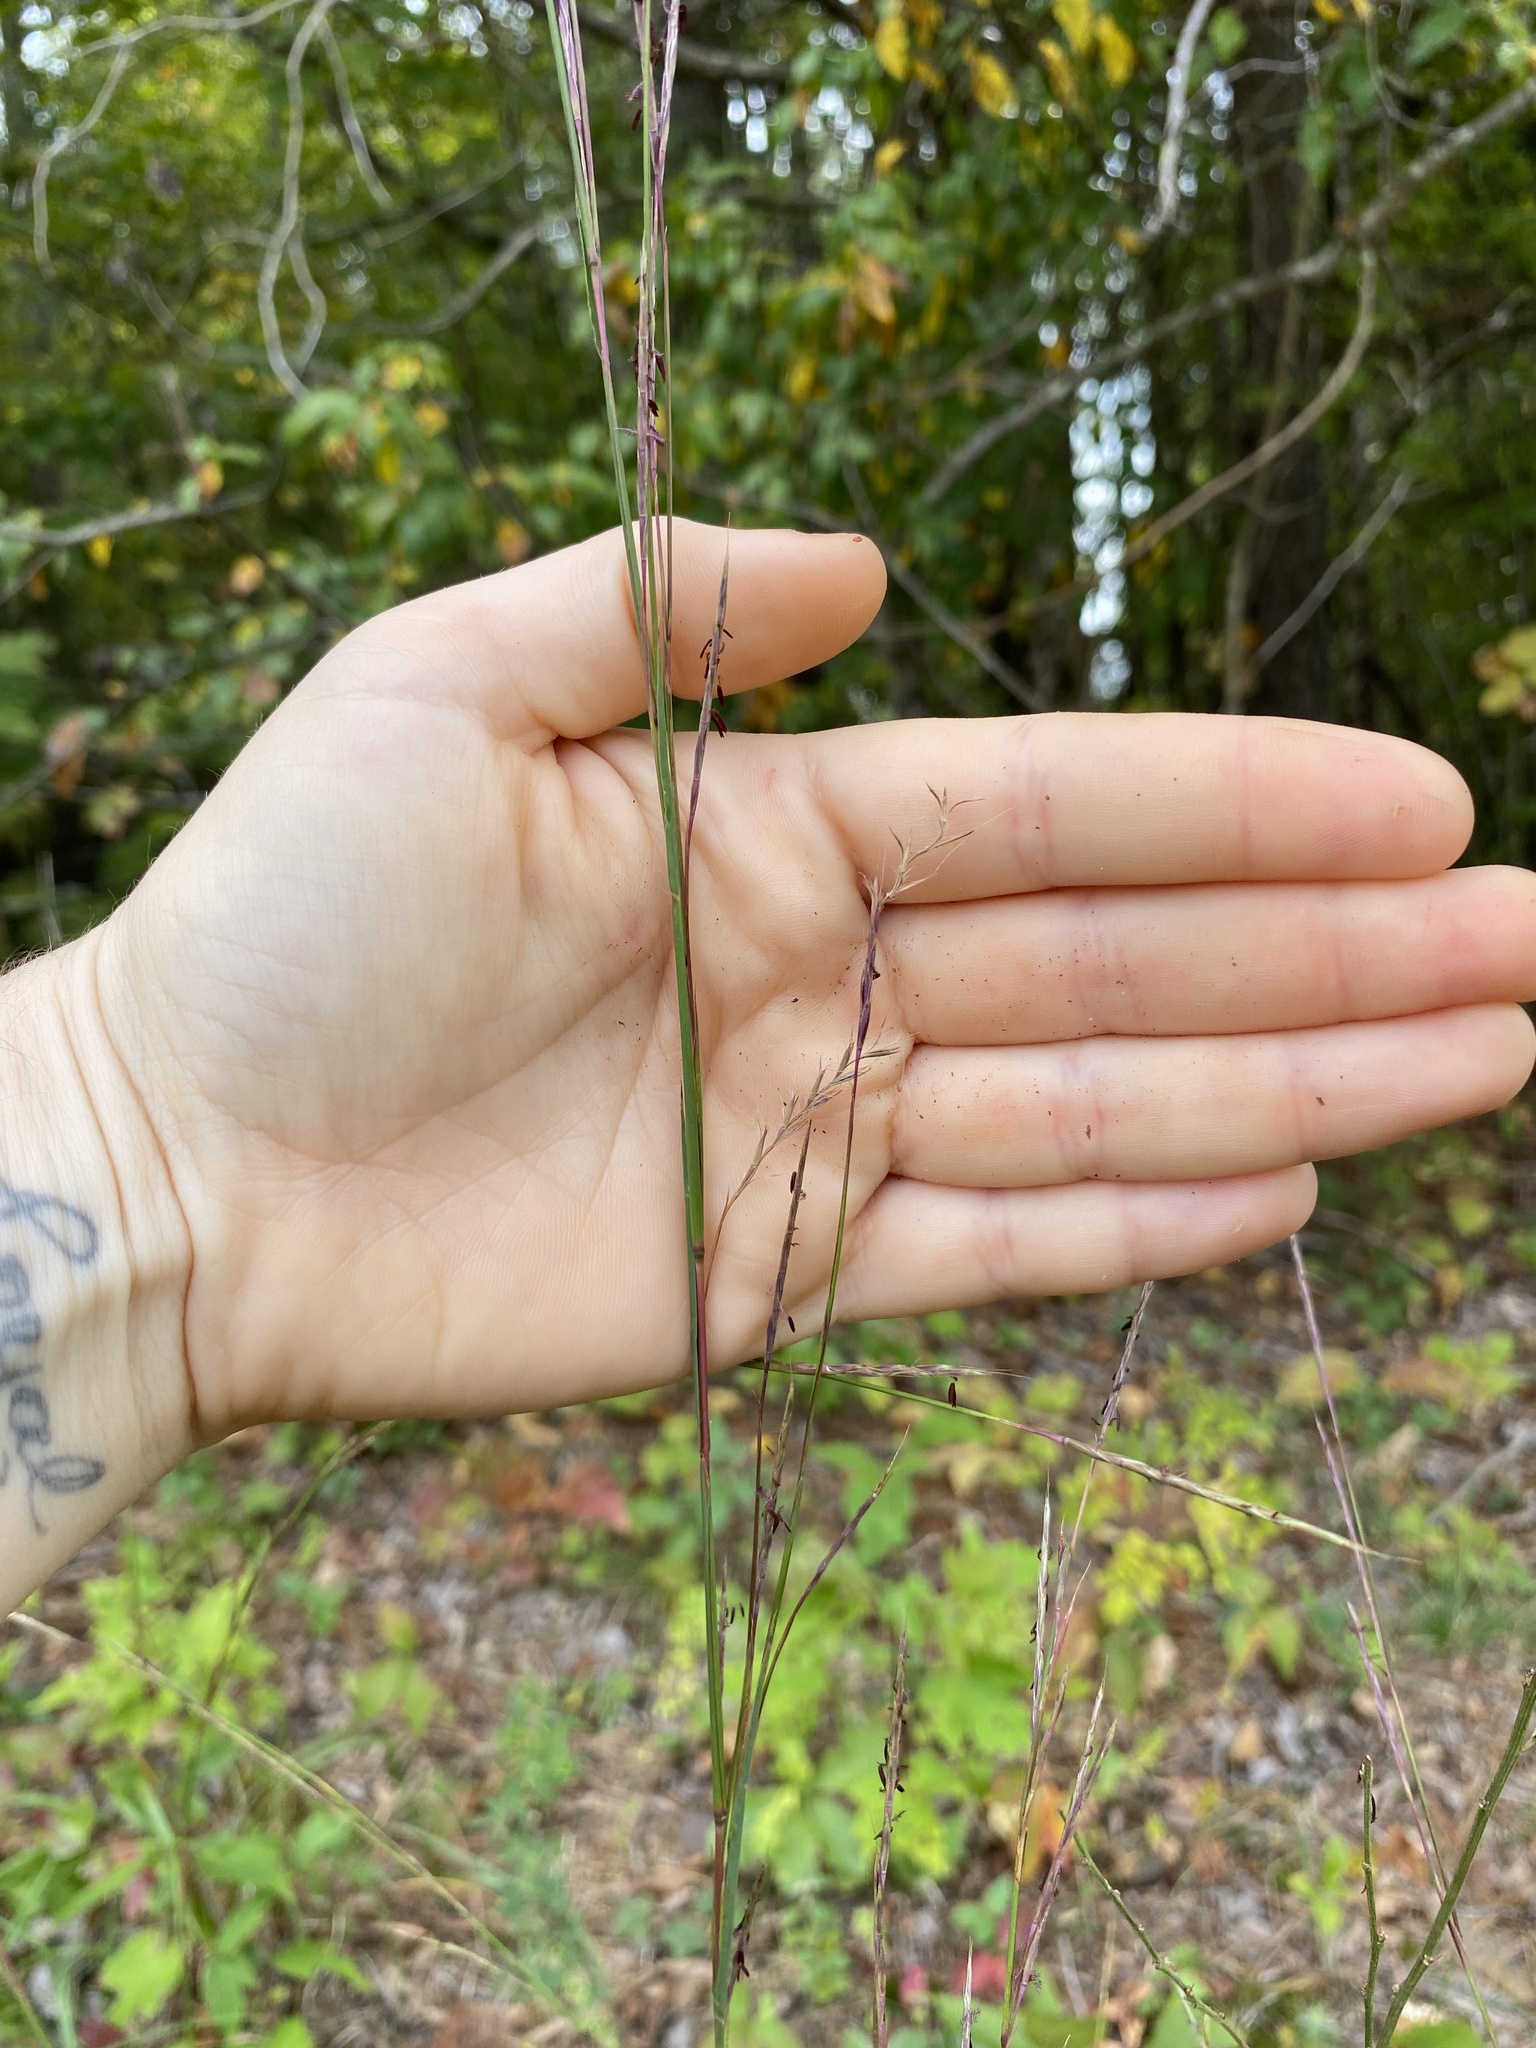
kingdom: Plantae
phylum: Tracheophyta
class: Liliopsida
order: Poales
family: Poaceae
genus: Schizachyrium
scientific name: Schizachyrium scoparium
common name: Little bluestem
